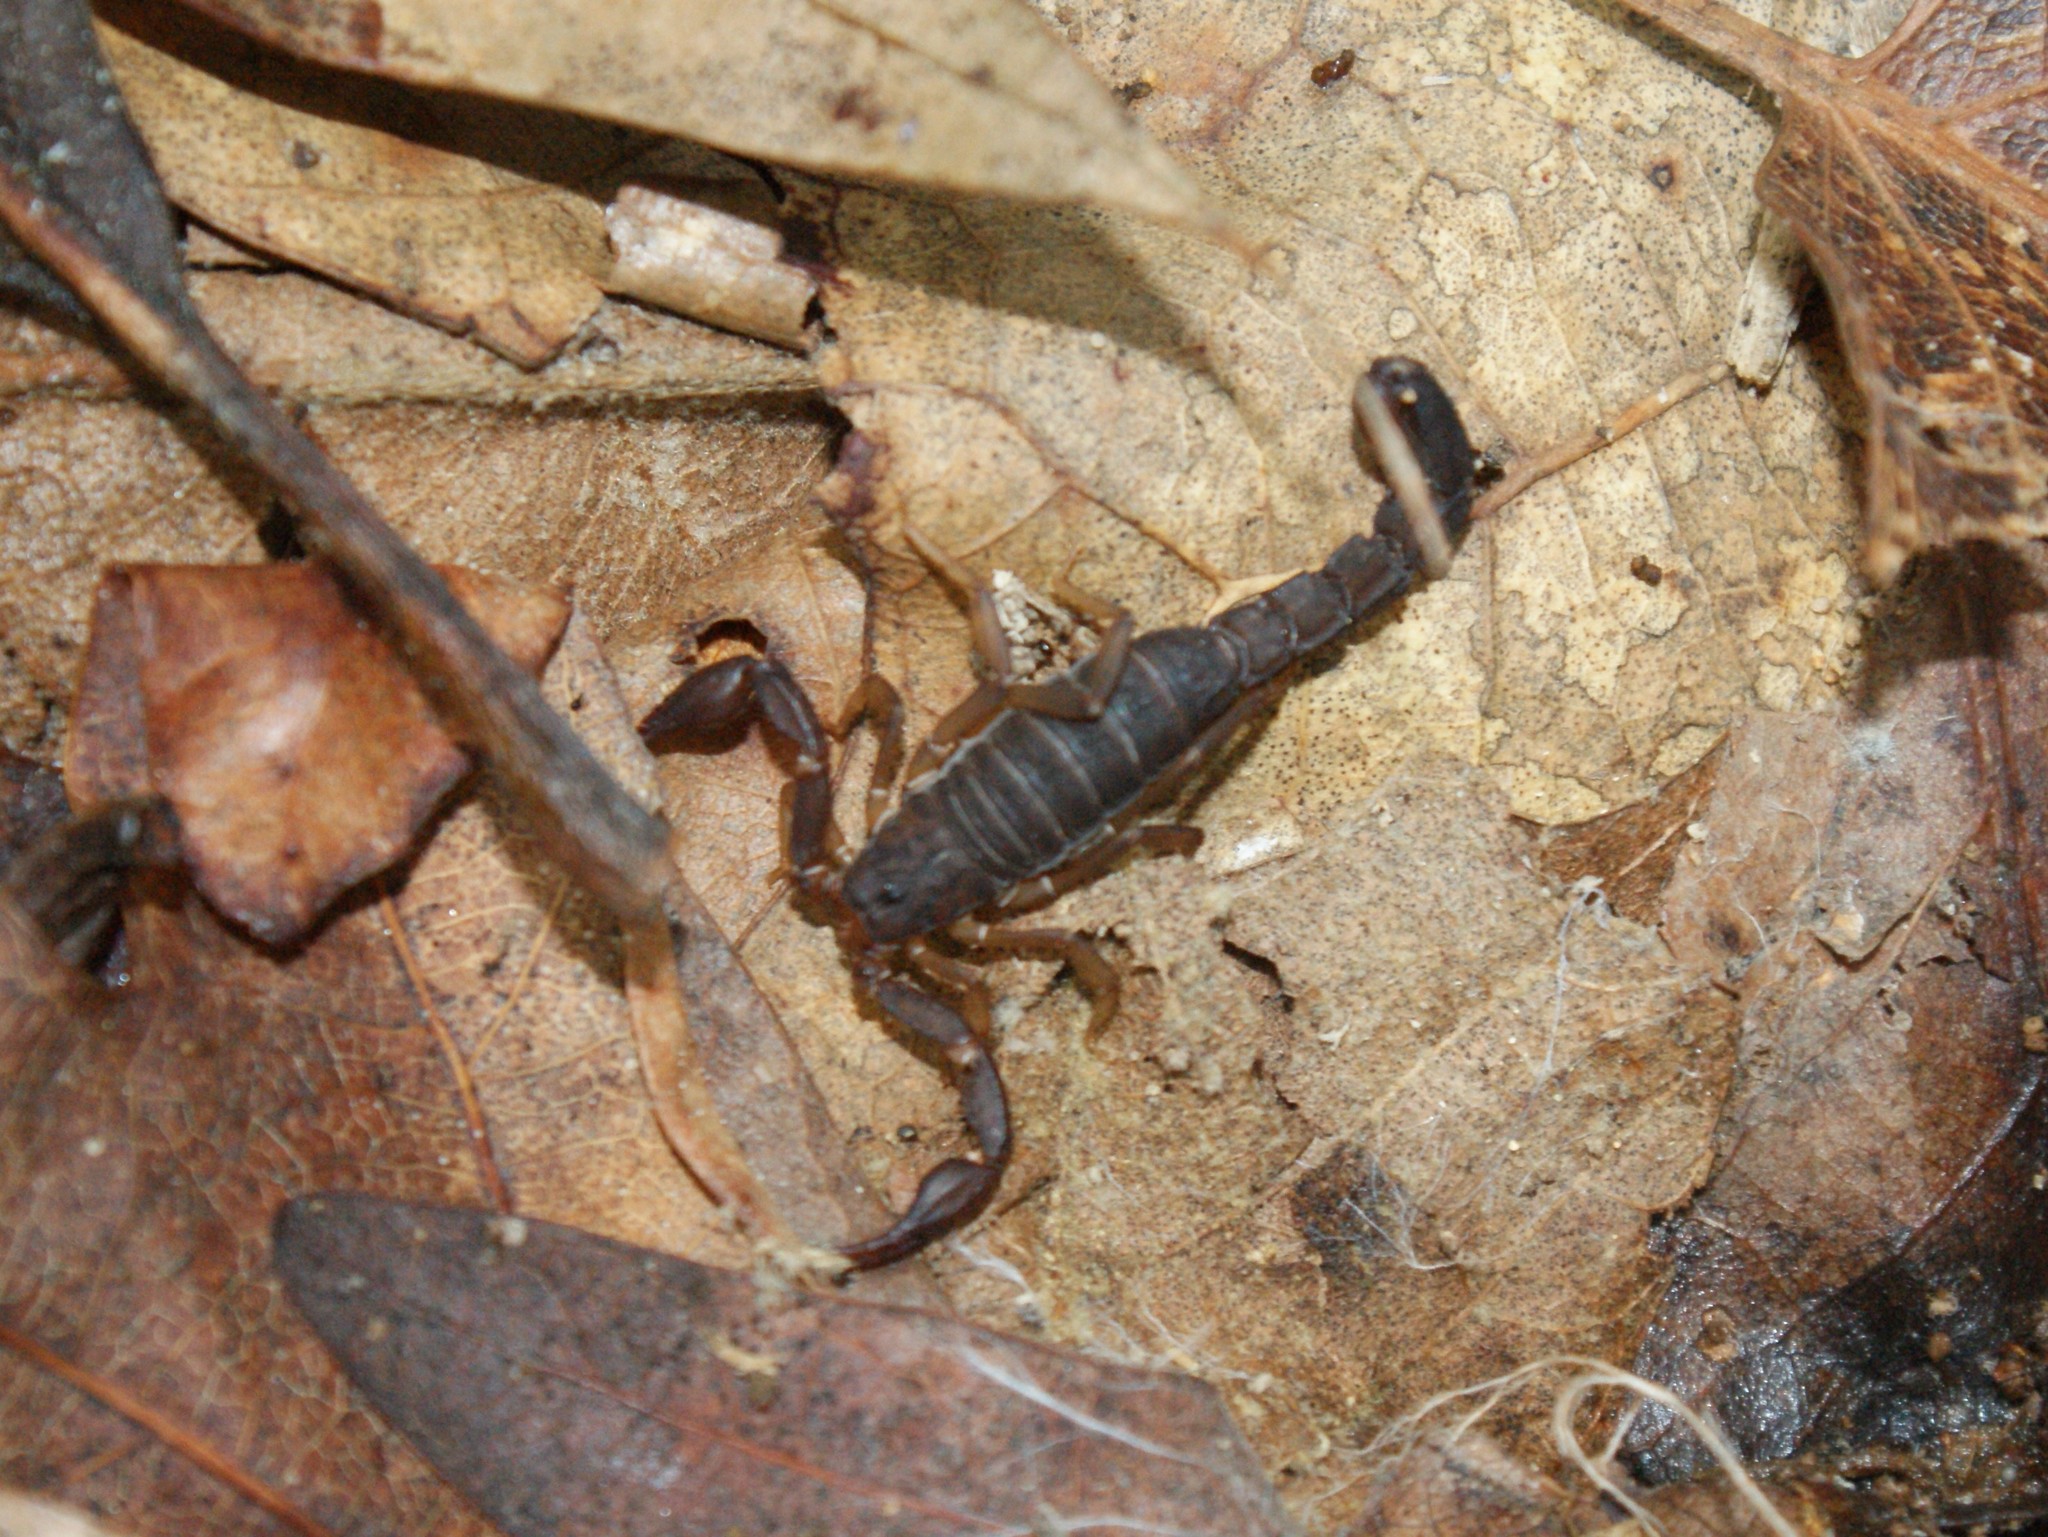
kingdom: Animalia
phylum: Arthropoda
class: Arachnida
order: Scorpiones
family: Vaejovidae
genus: Vaejovis
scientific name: Vaejovis carolinianus
